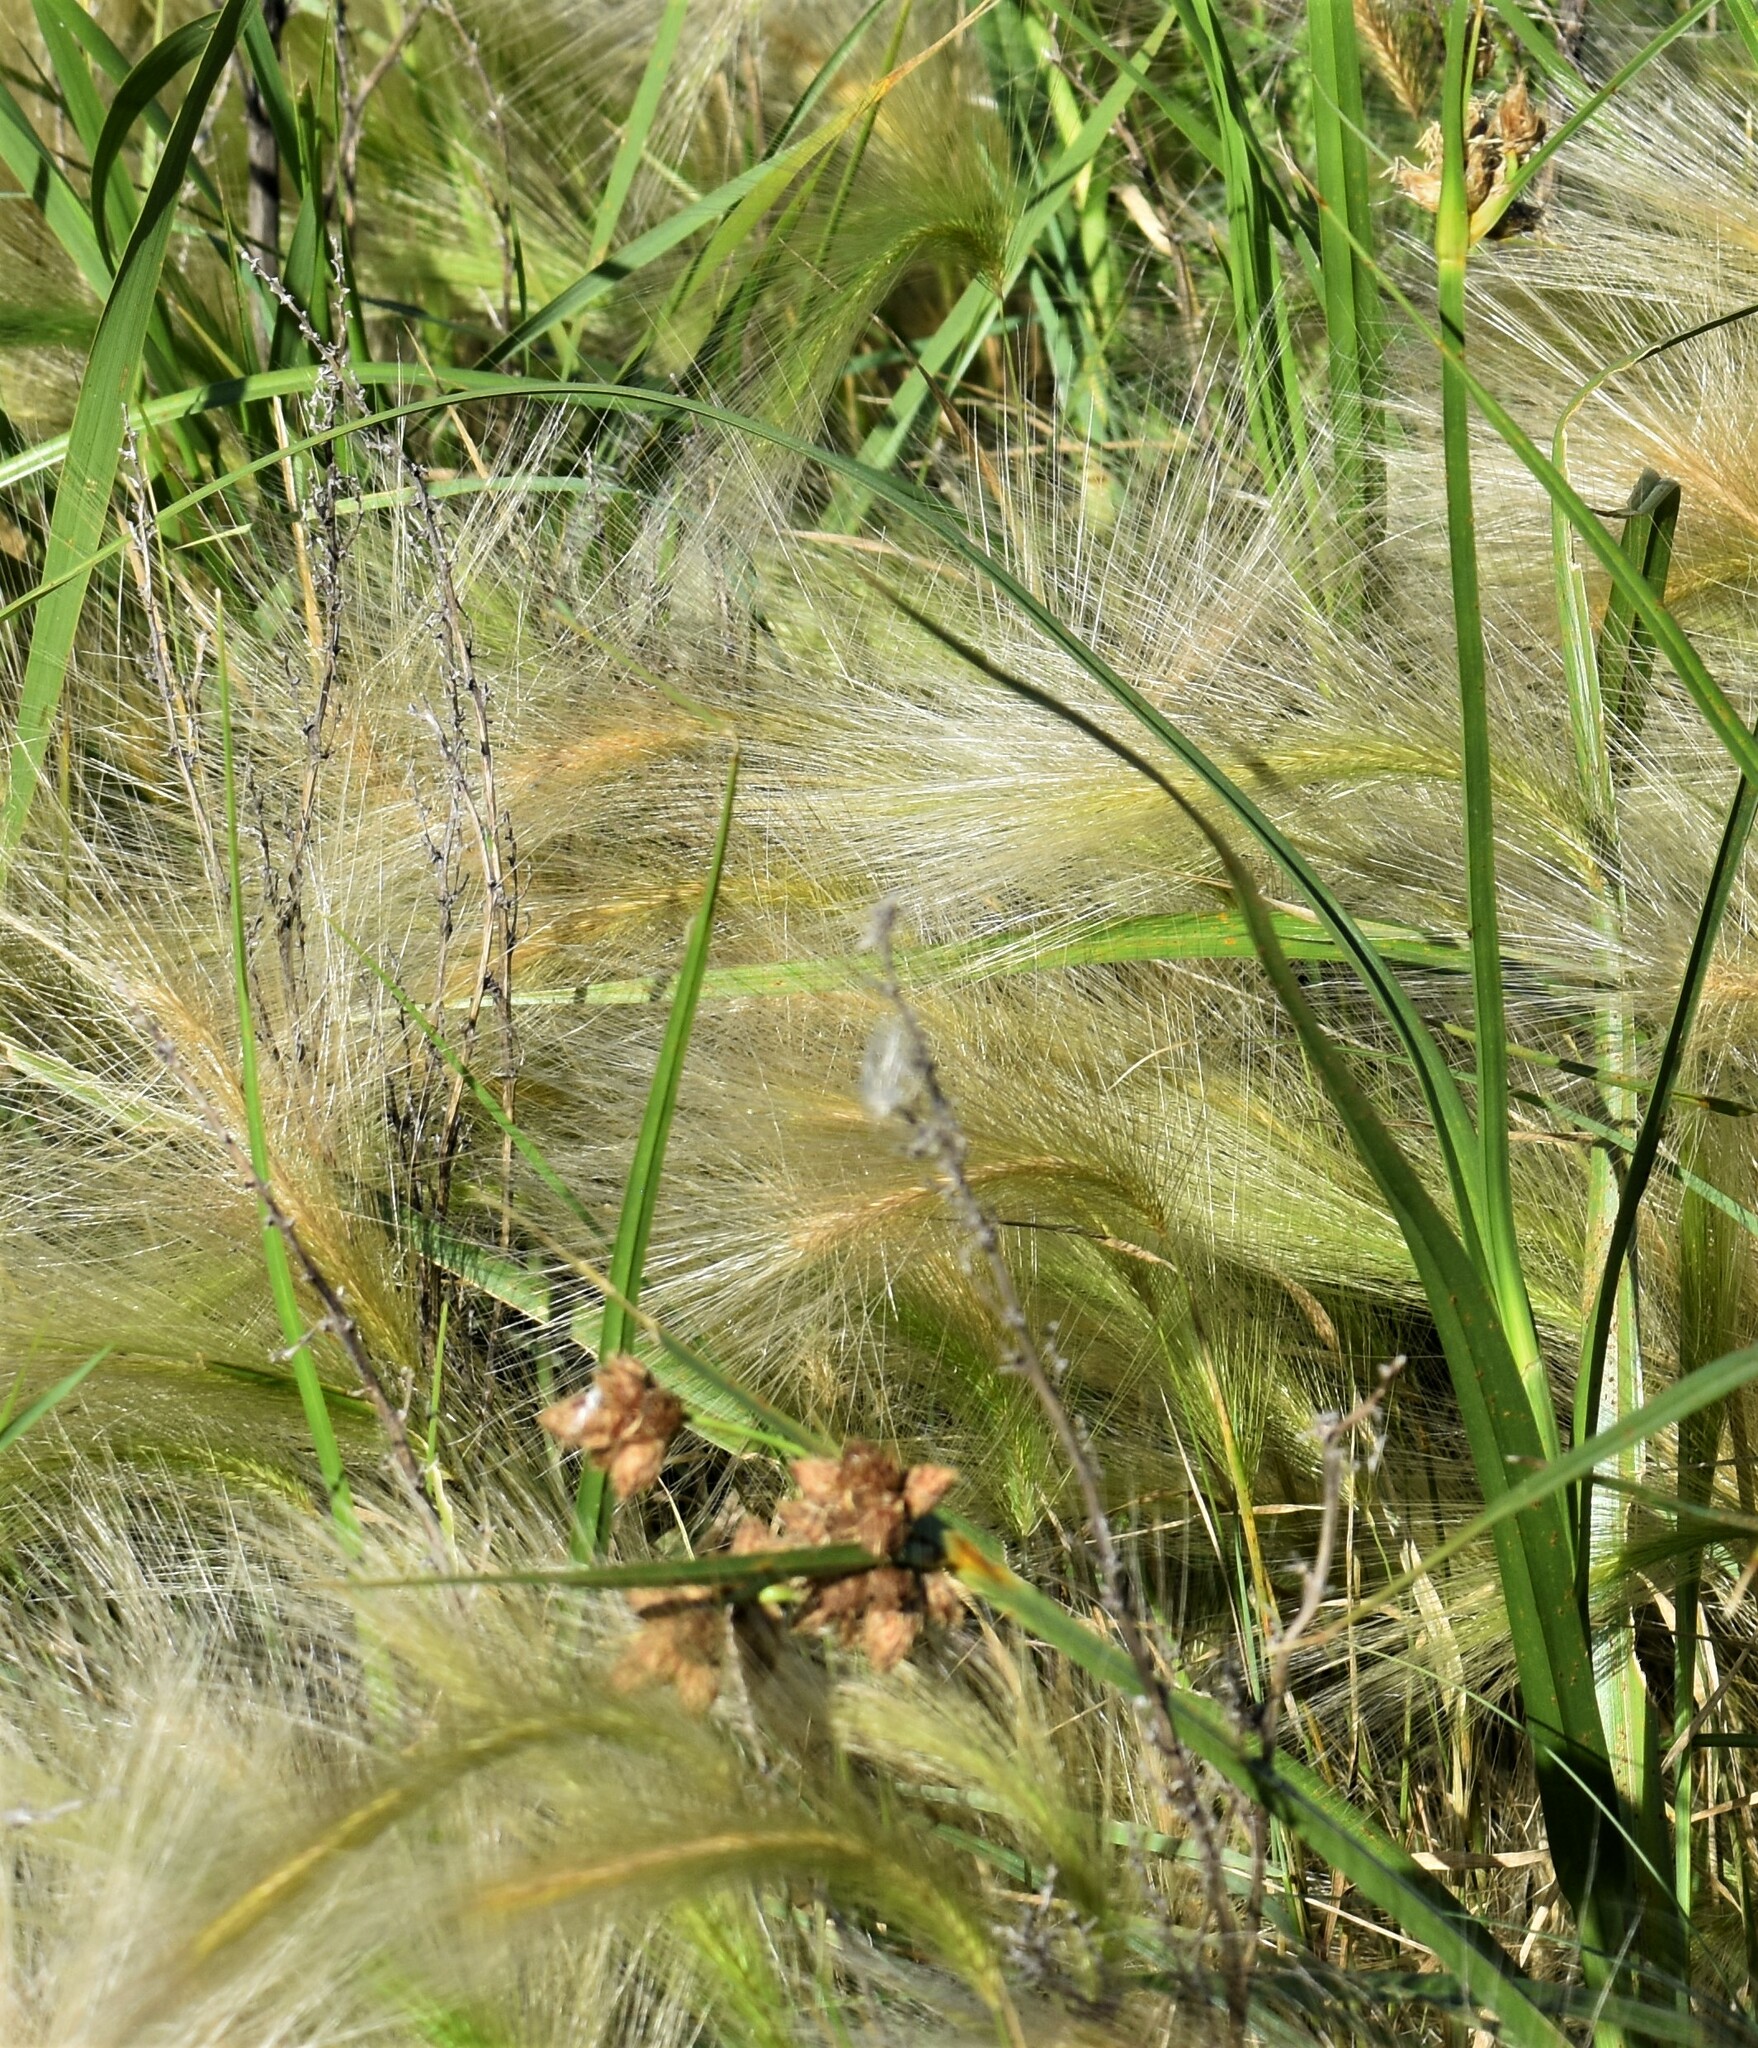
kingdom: Plantae
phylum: Tracheophyta
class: Liliopsida
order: Poales
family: Poaceae
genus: Hordeum
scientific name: Hordeum jubatum
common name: Foxtail barley
